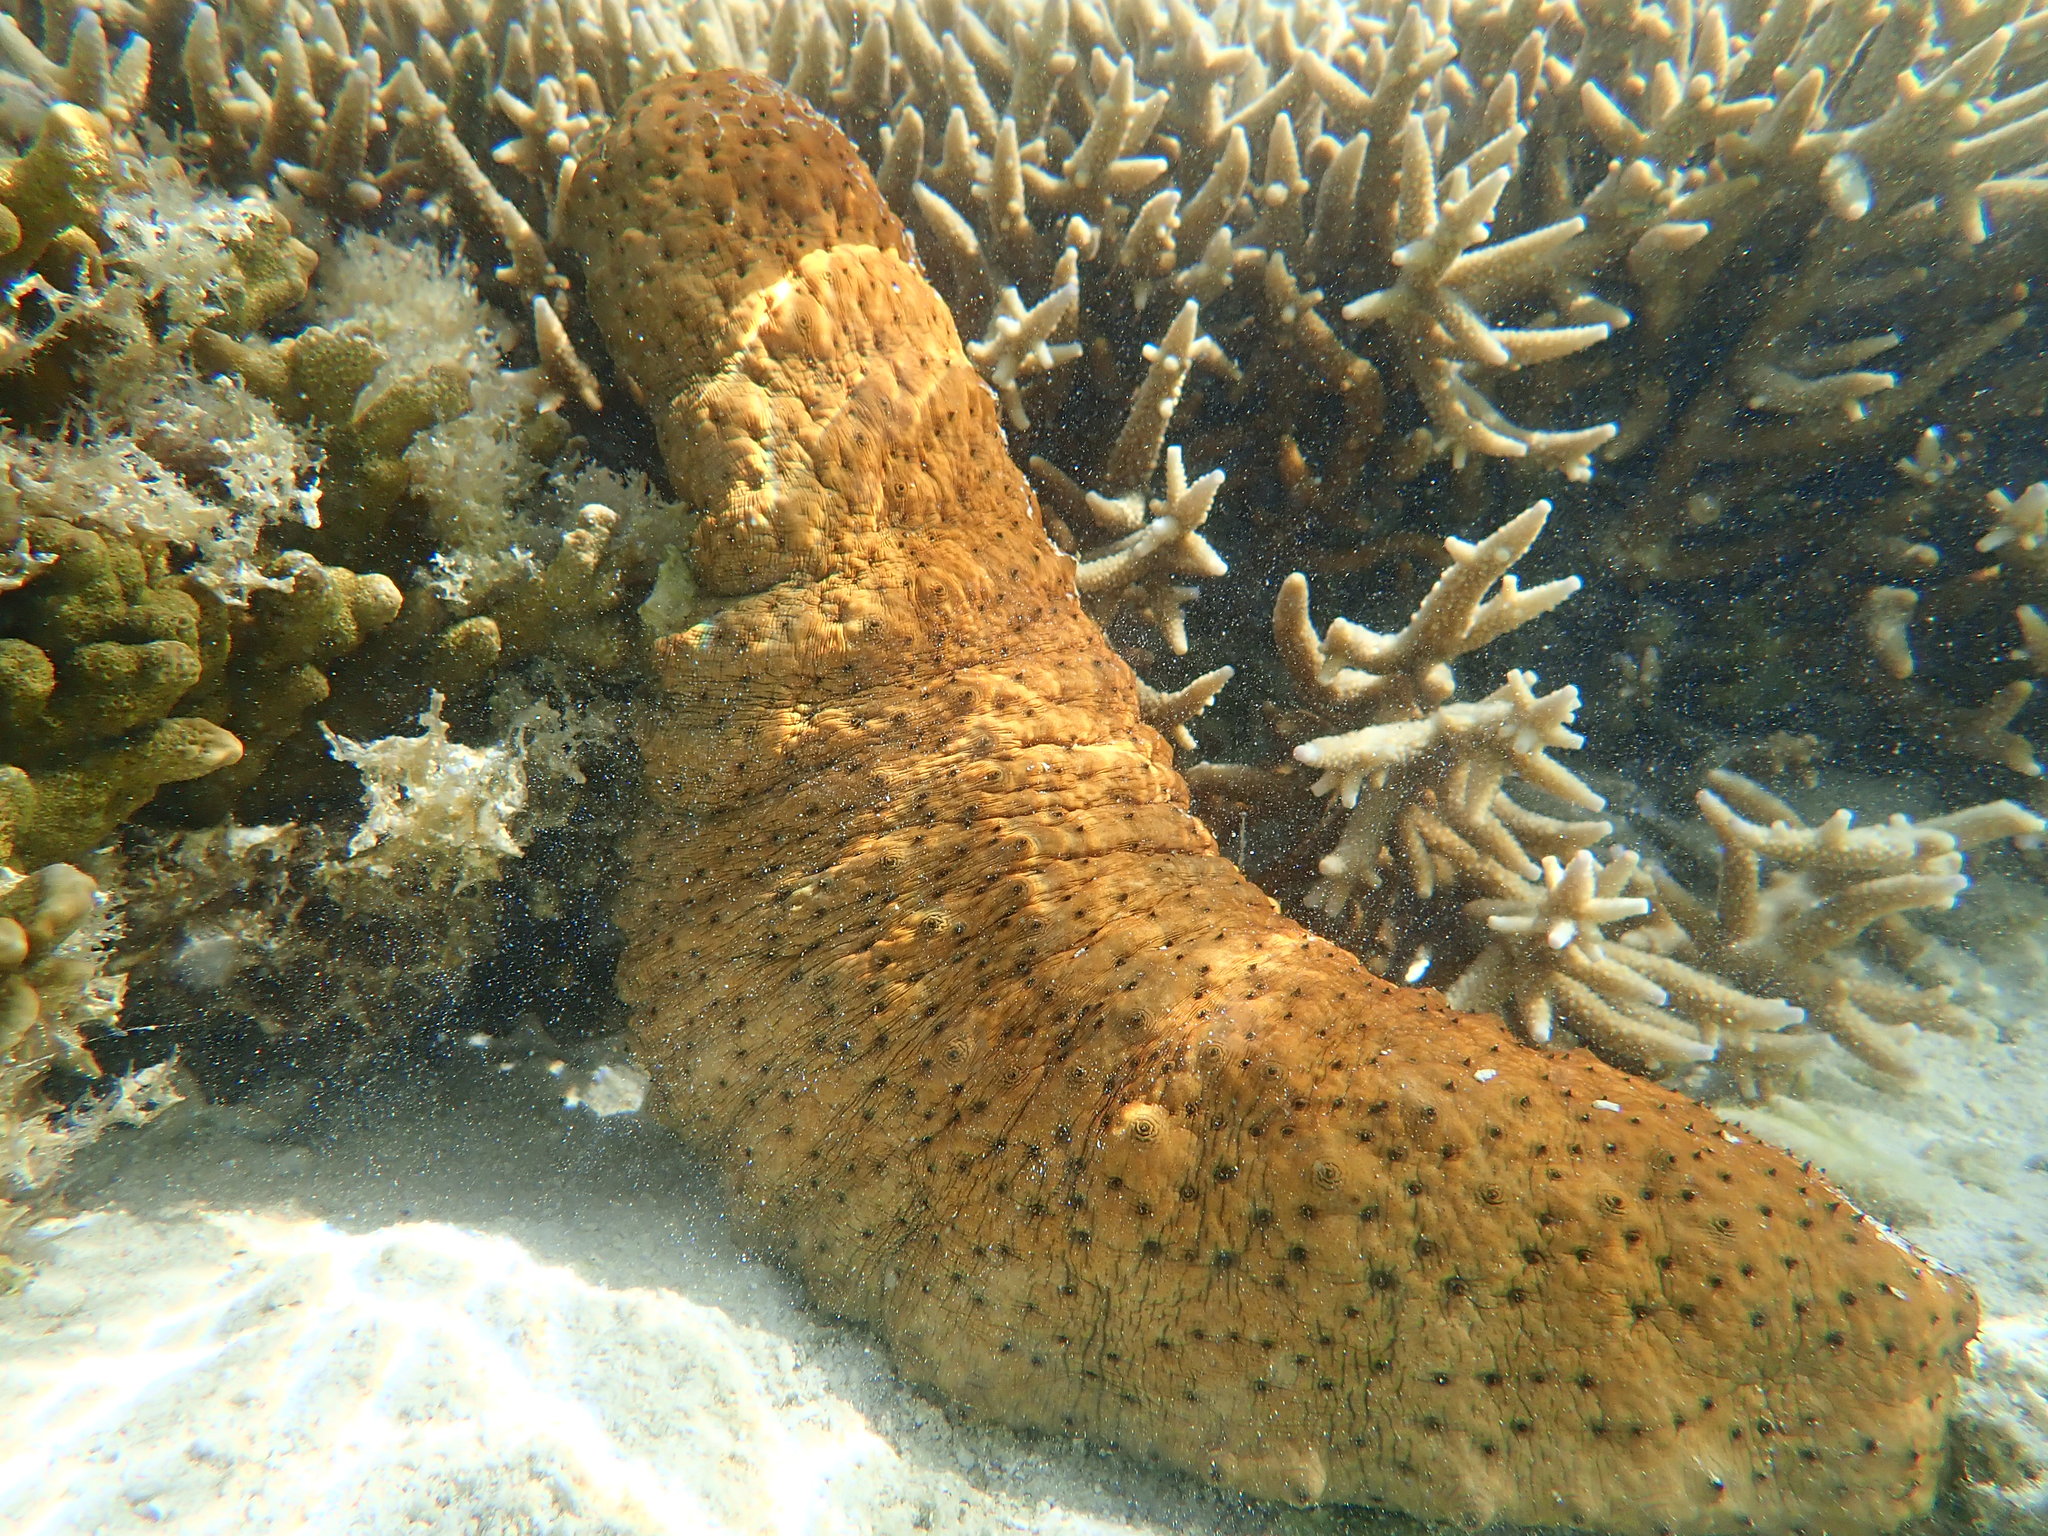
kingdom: Animalia
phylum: Echinodermata
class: Holothuroidea
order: Synallactida
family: Stichopodidae
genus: Stichopus
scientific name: Stichopus herrmanni
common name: Curryfish
